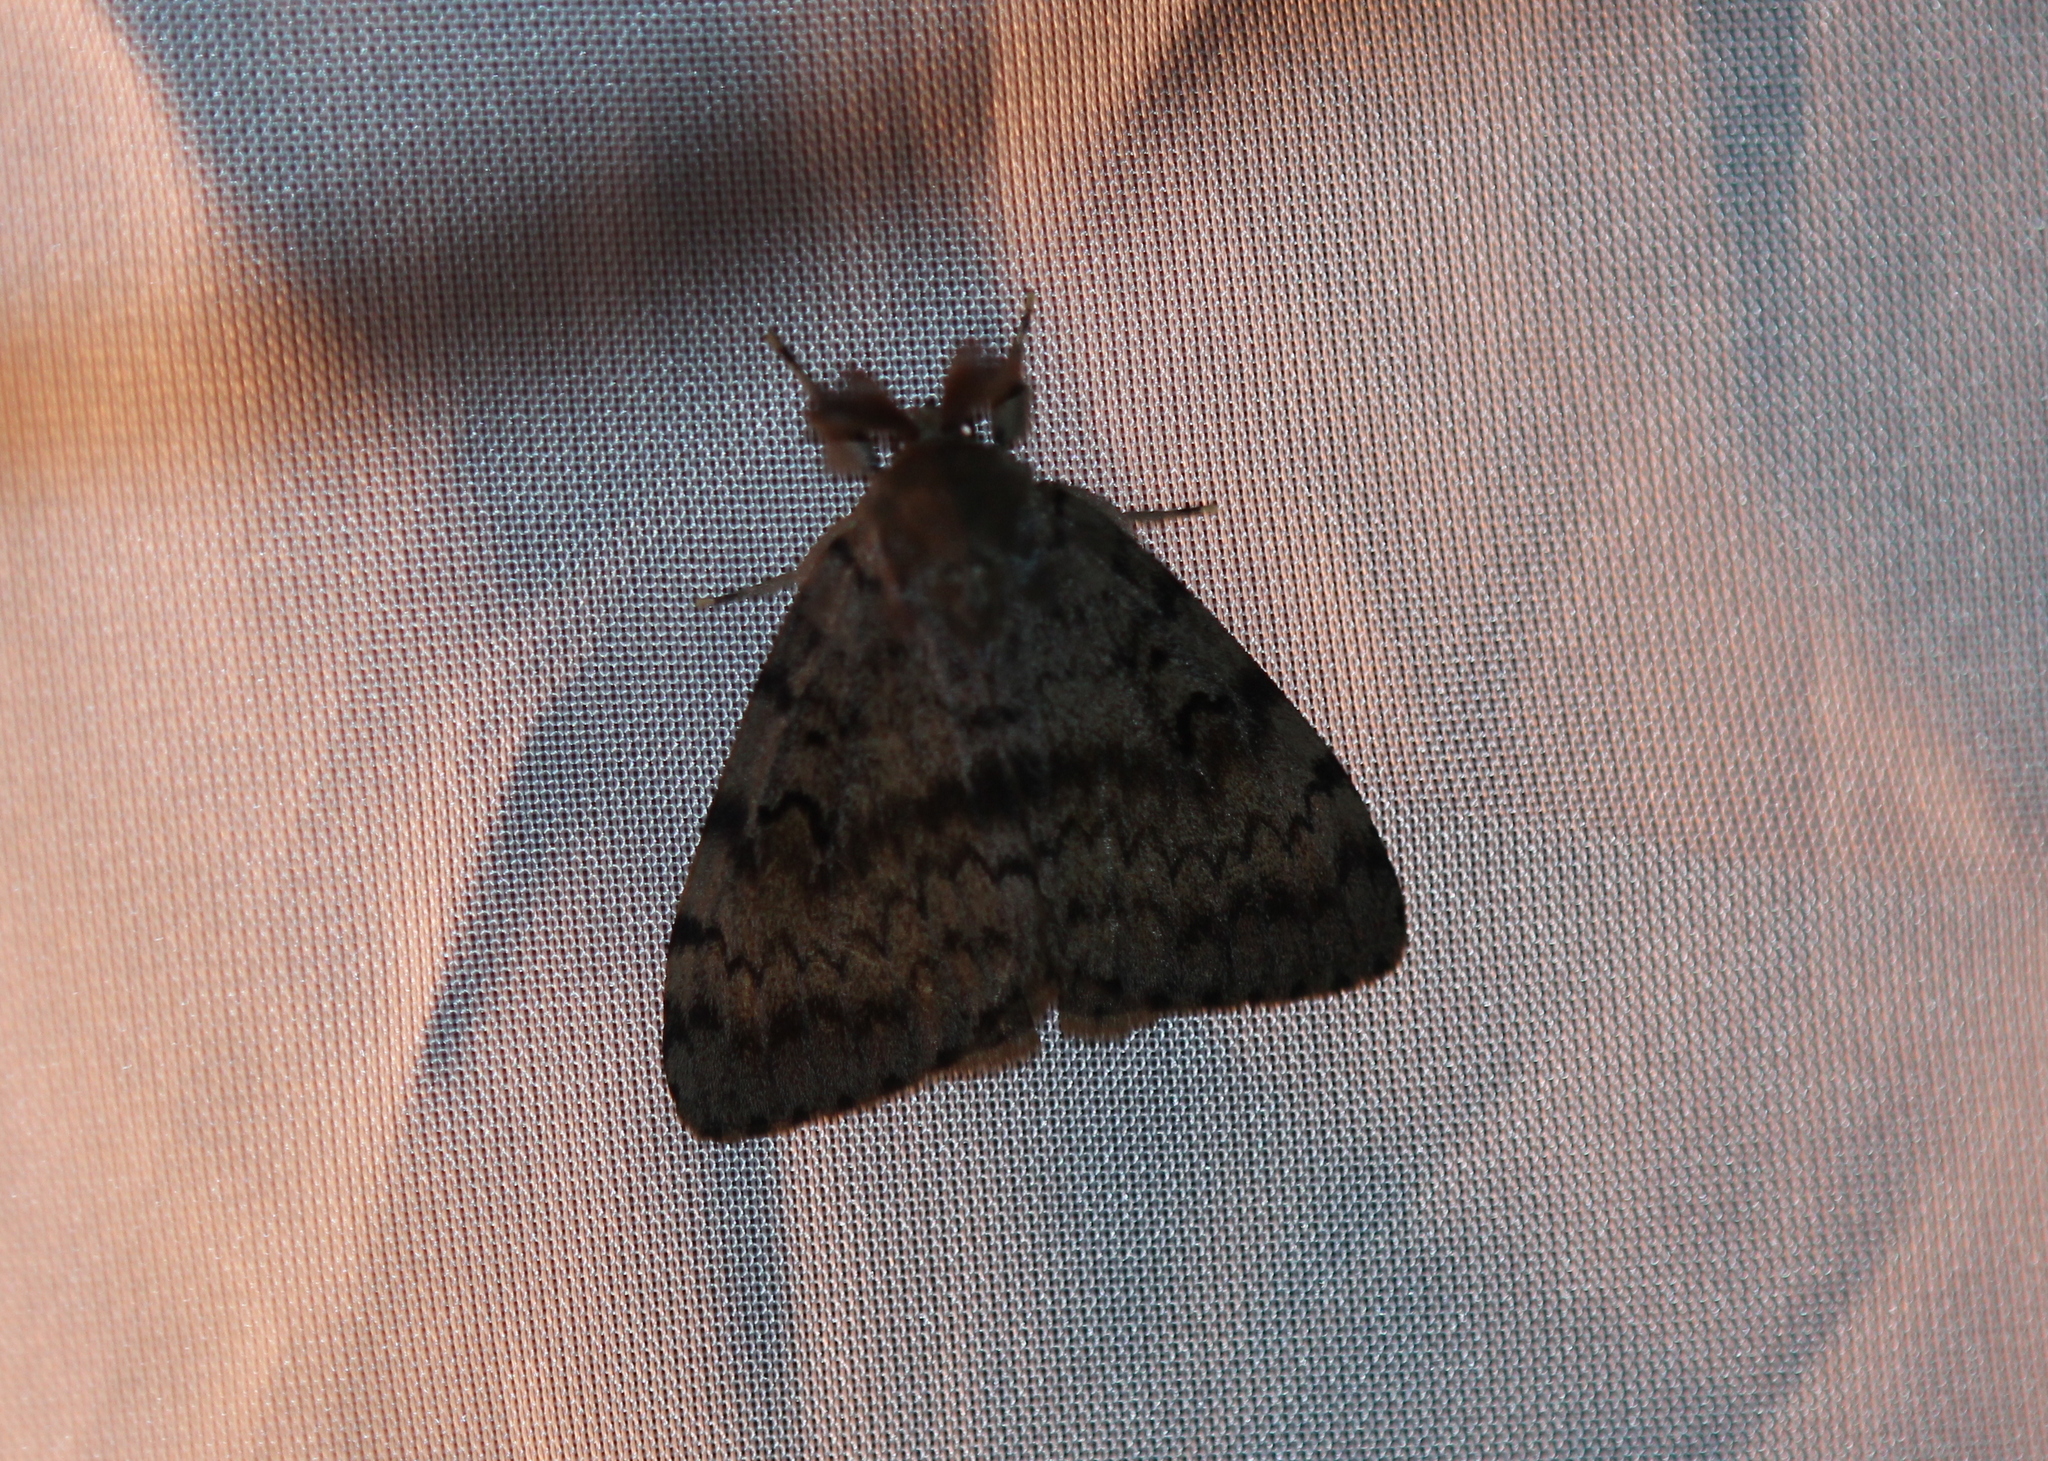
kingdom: Animalia
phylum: Arthropoda
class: Insecta
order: Lepidoptera
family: Erebidae
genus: Lymantria
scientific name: Lymantria dispar
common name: Gypsy moth
